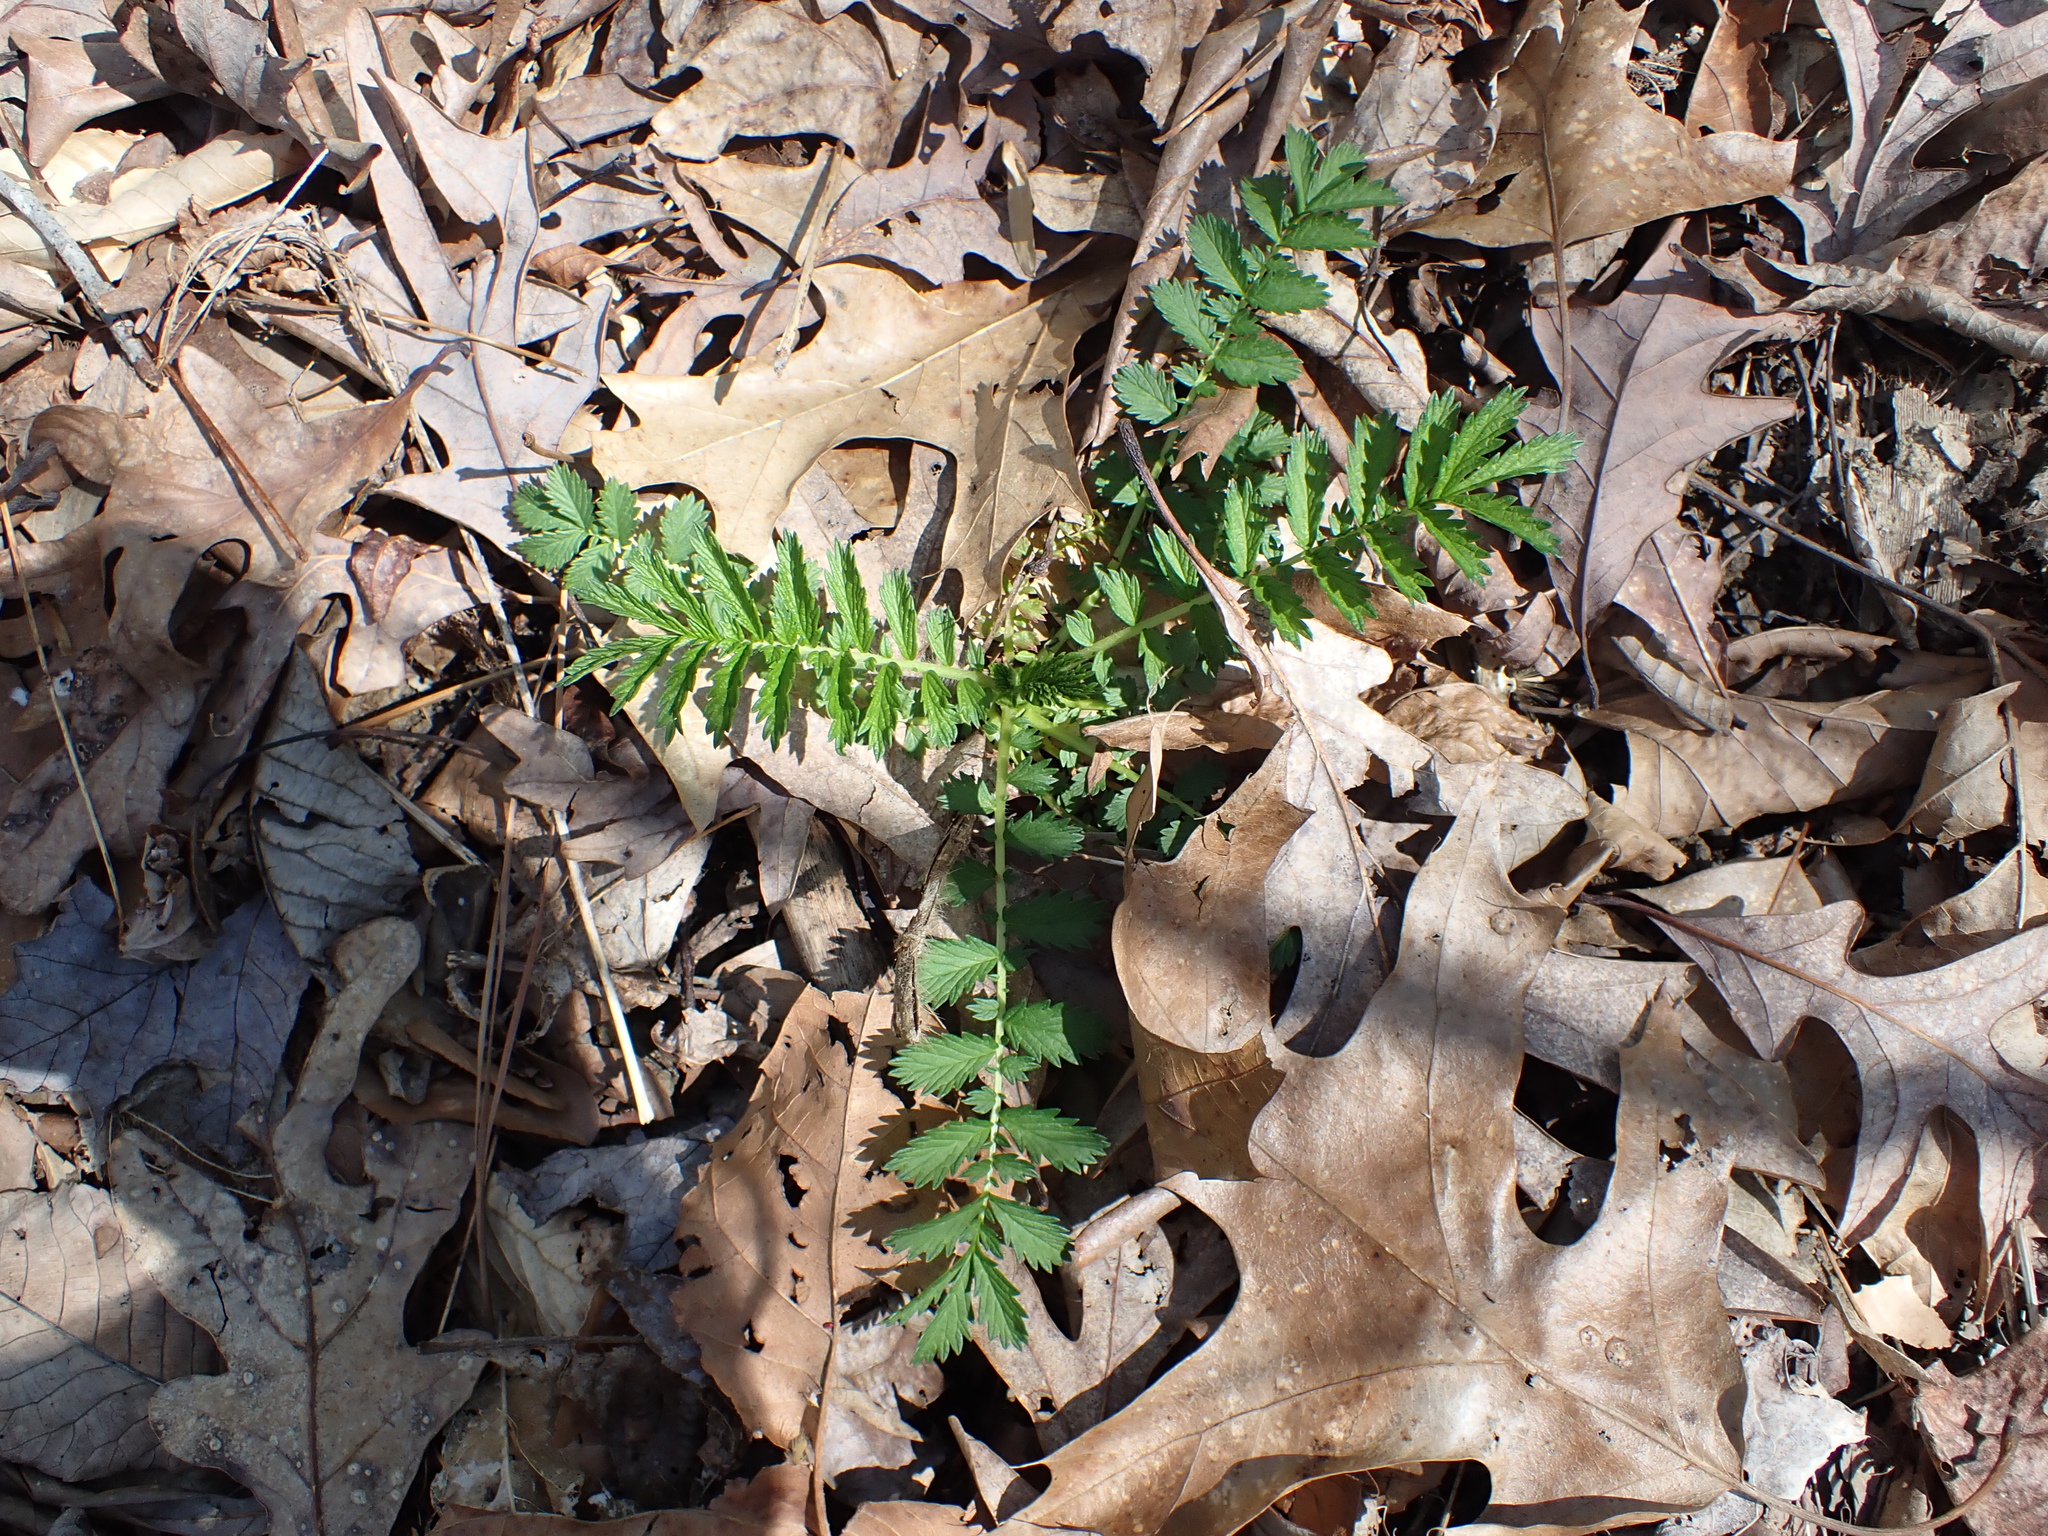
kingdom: Plantae
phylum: Tracheophyta
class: Magnoliopsida
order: Rosales
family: Rosaceae
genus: Agrimonia
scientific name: Agrimonia parviflora
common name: Harvest-lice
